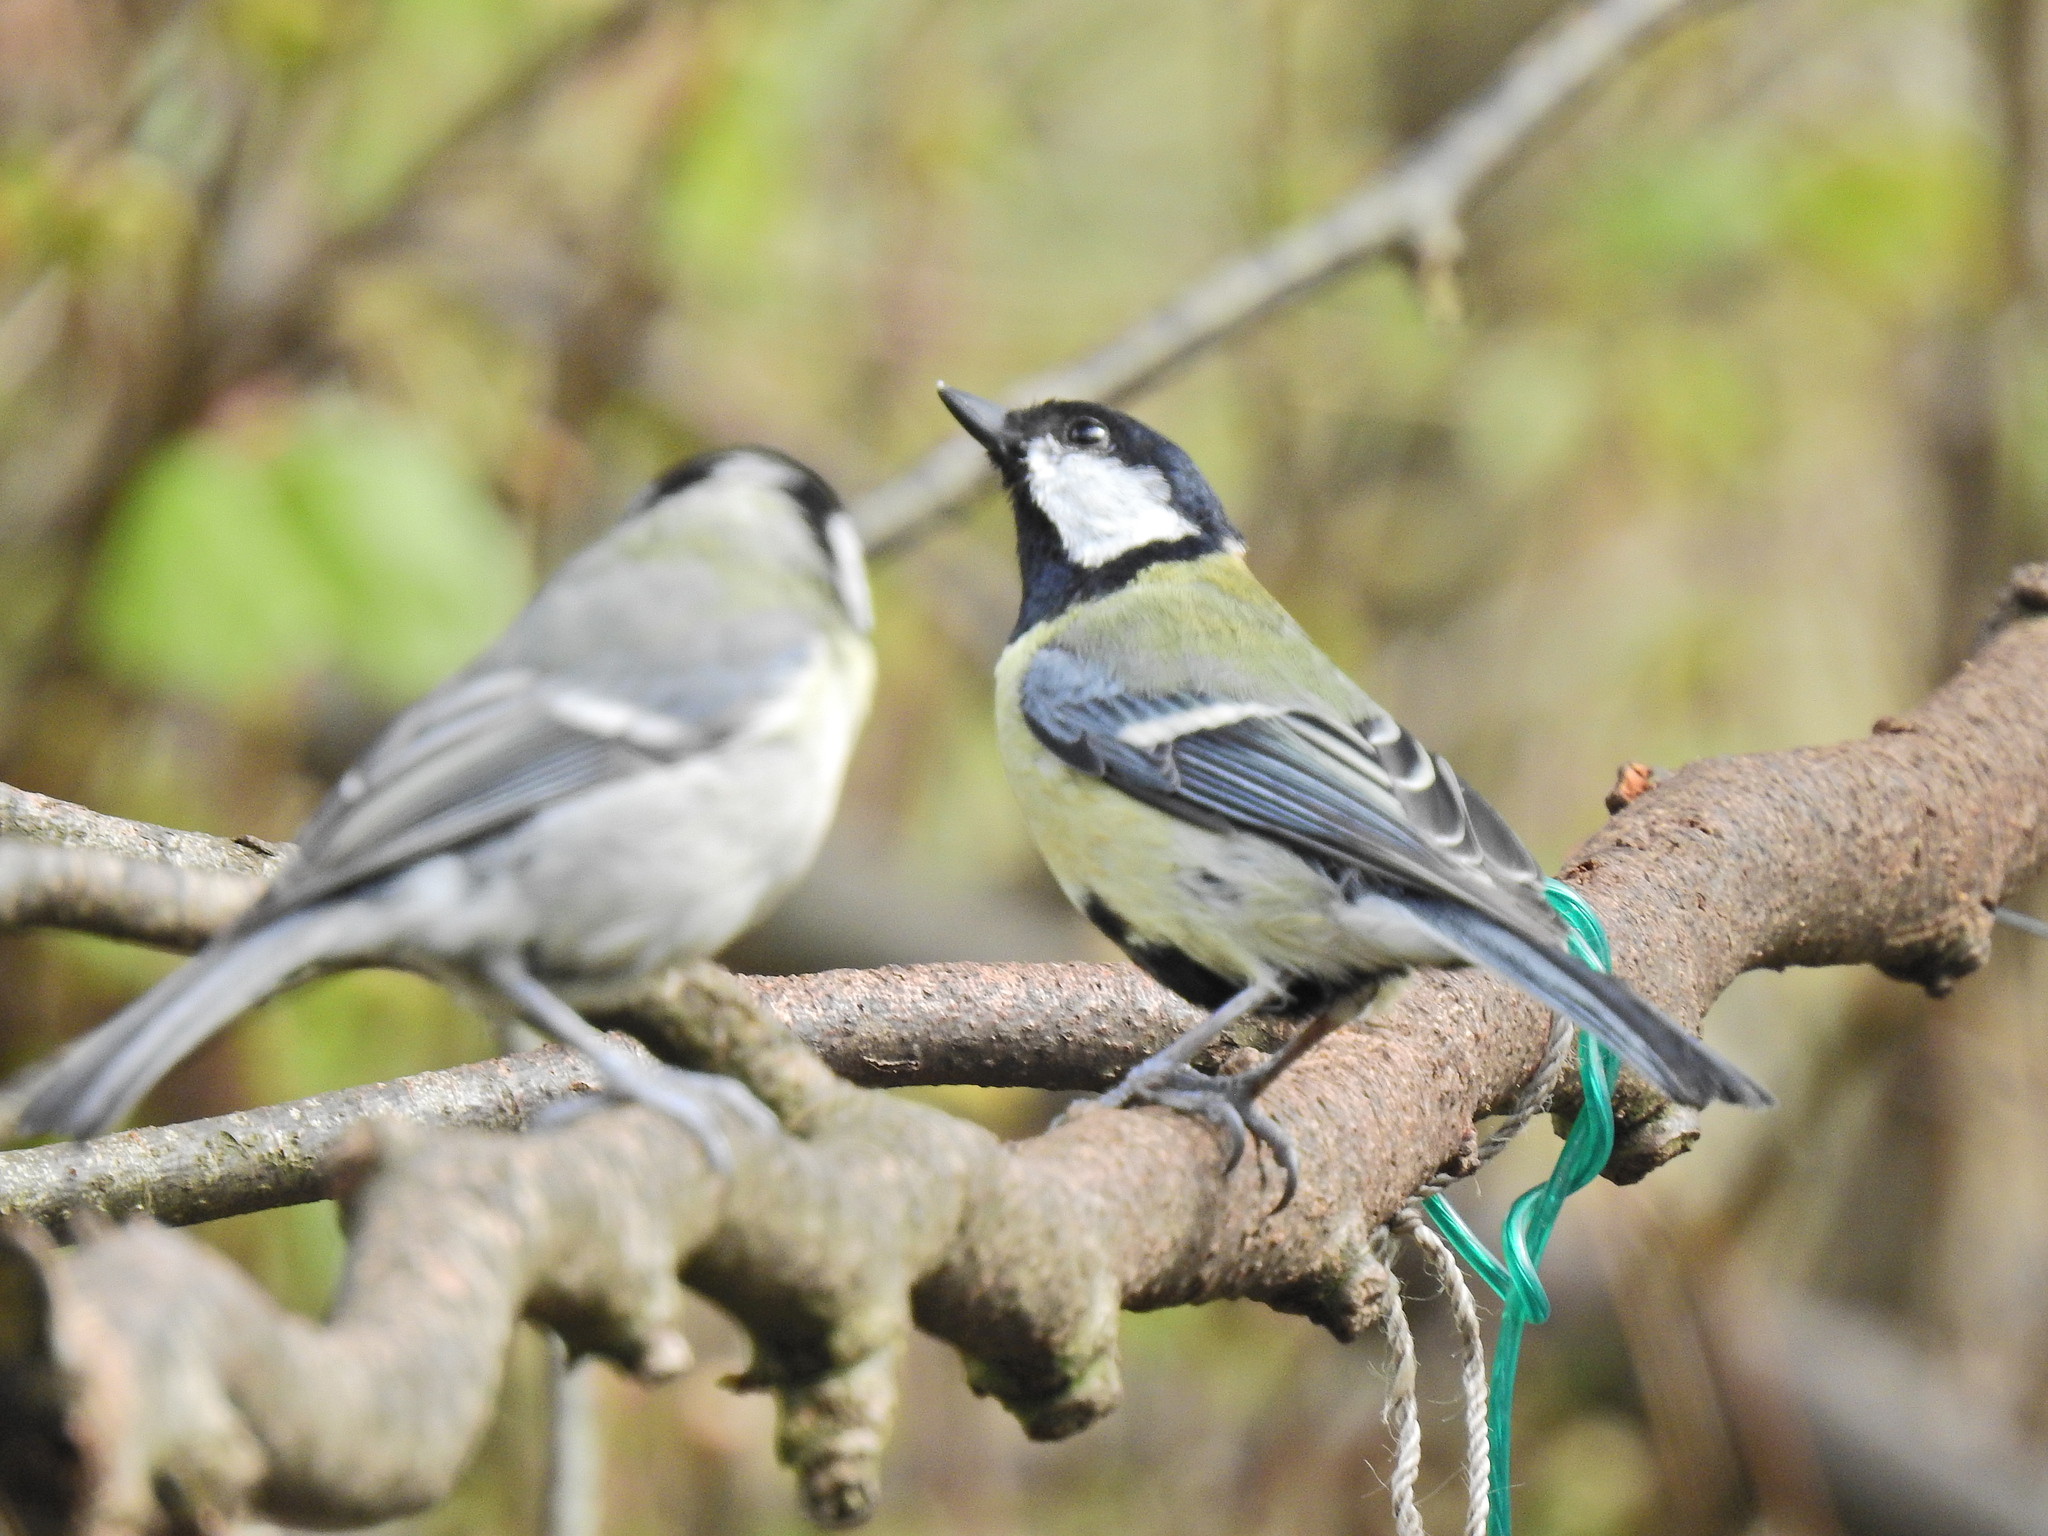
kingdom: Animalia
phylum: Chordata
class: Aves
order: Passeriformes
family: Paridae
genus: Parus
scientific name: Parus major
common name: Great tit
